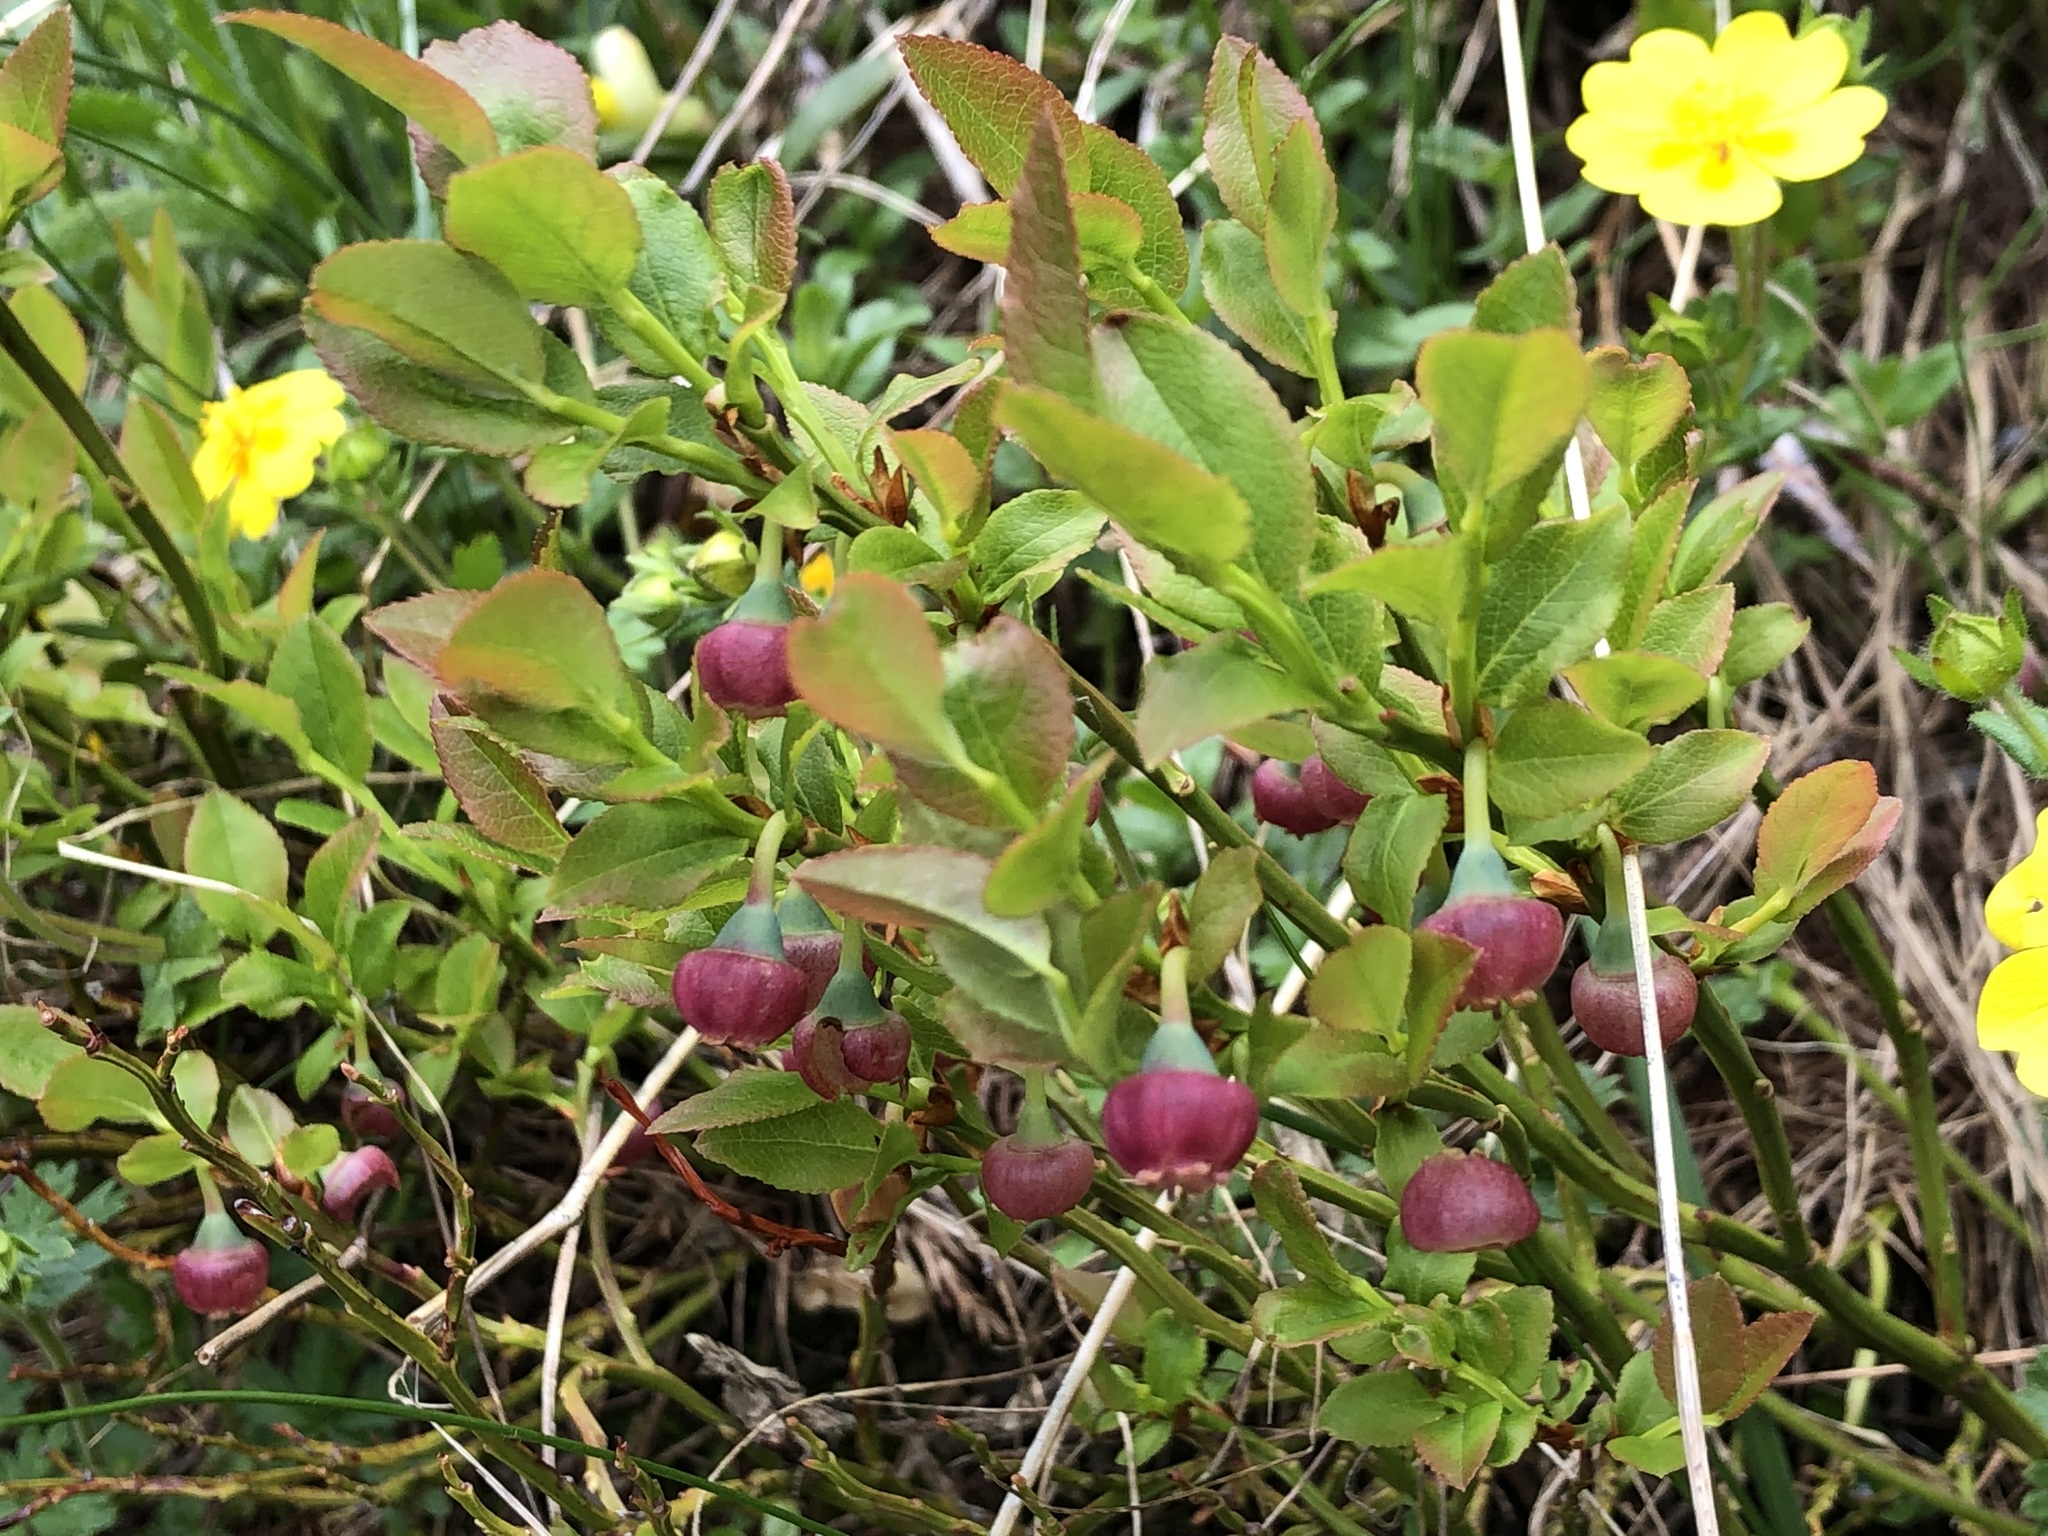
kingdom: Plantae
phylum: Tracheophyta
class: Magnoliopsida
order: Ericales
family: Ericaceae
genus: Vaccinium
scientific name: Vaccinium myrtillus
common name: Bilberry
